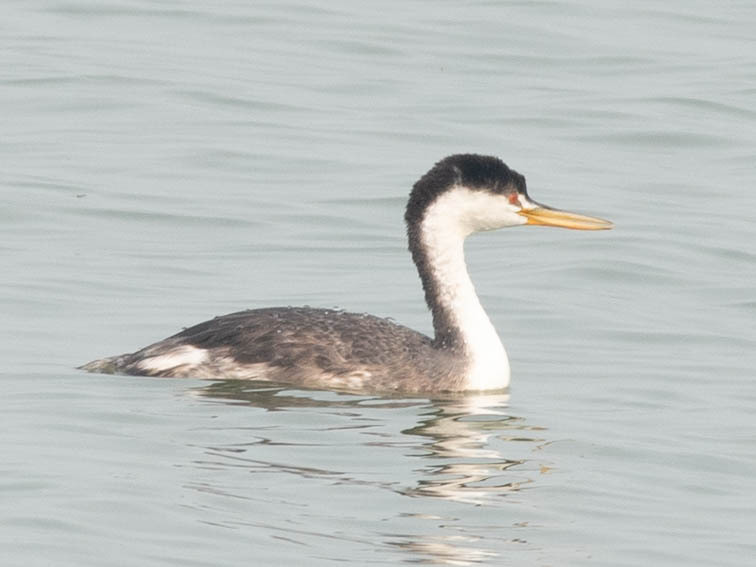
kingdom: Animalia
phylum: Chordata
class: Aves
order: Podicipediformes
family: Podicipedidae
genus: Aechmophorus
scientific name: Aechmophorus occidentalis
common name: Western grebe
